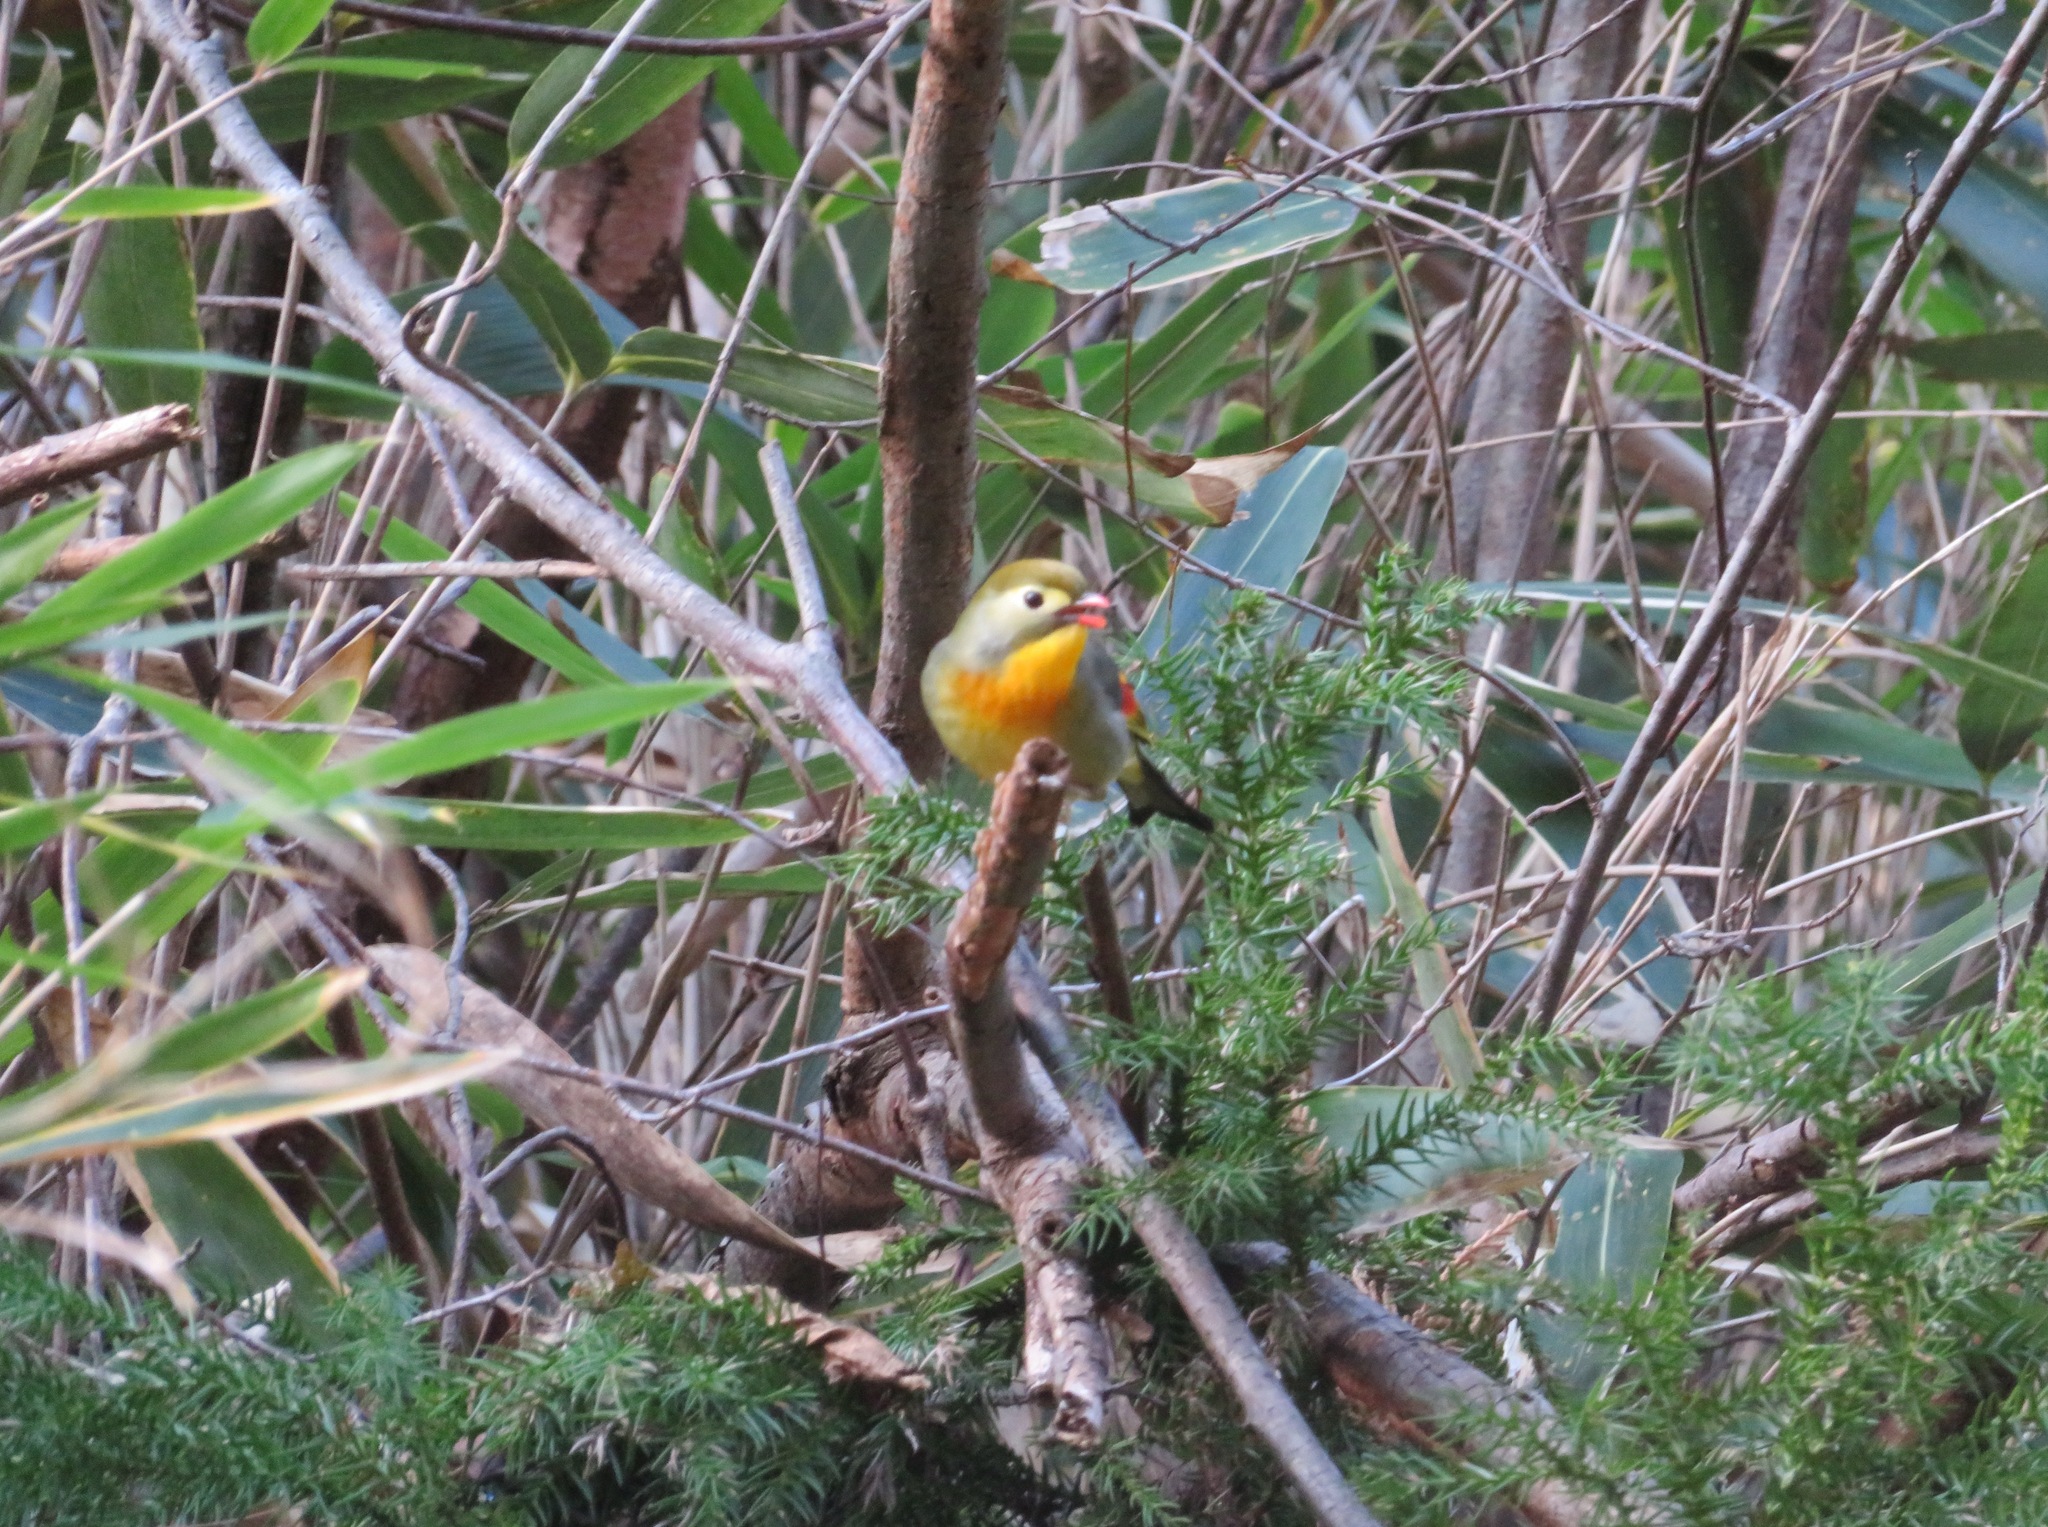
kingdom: Animalia
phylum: Chordata
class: Aves
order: Passeriformes
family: Leiothrichidae
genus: Leiothrix
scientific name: Leiothrix lutea
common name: Red-billed leiothrix
